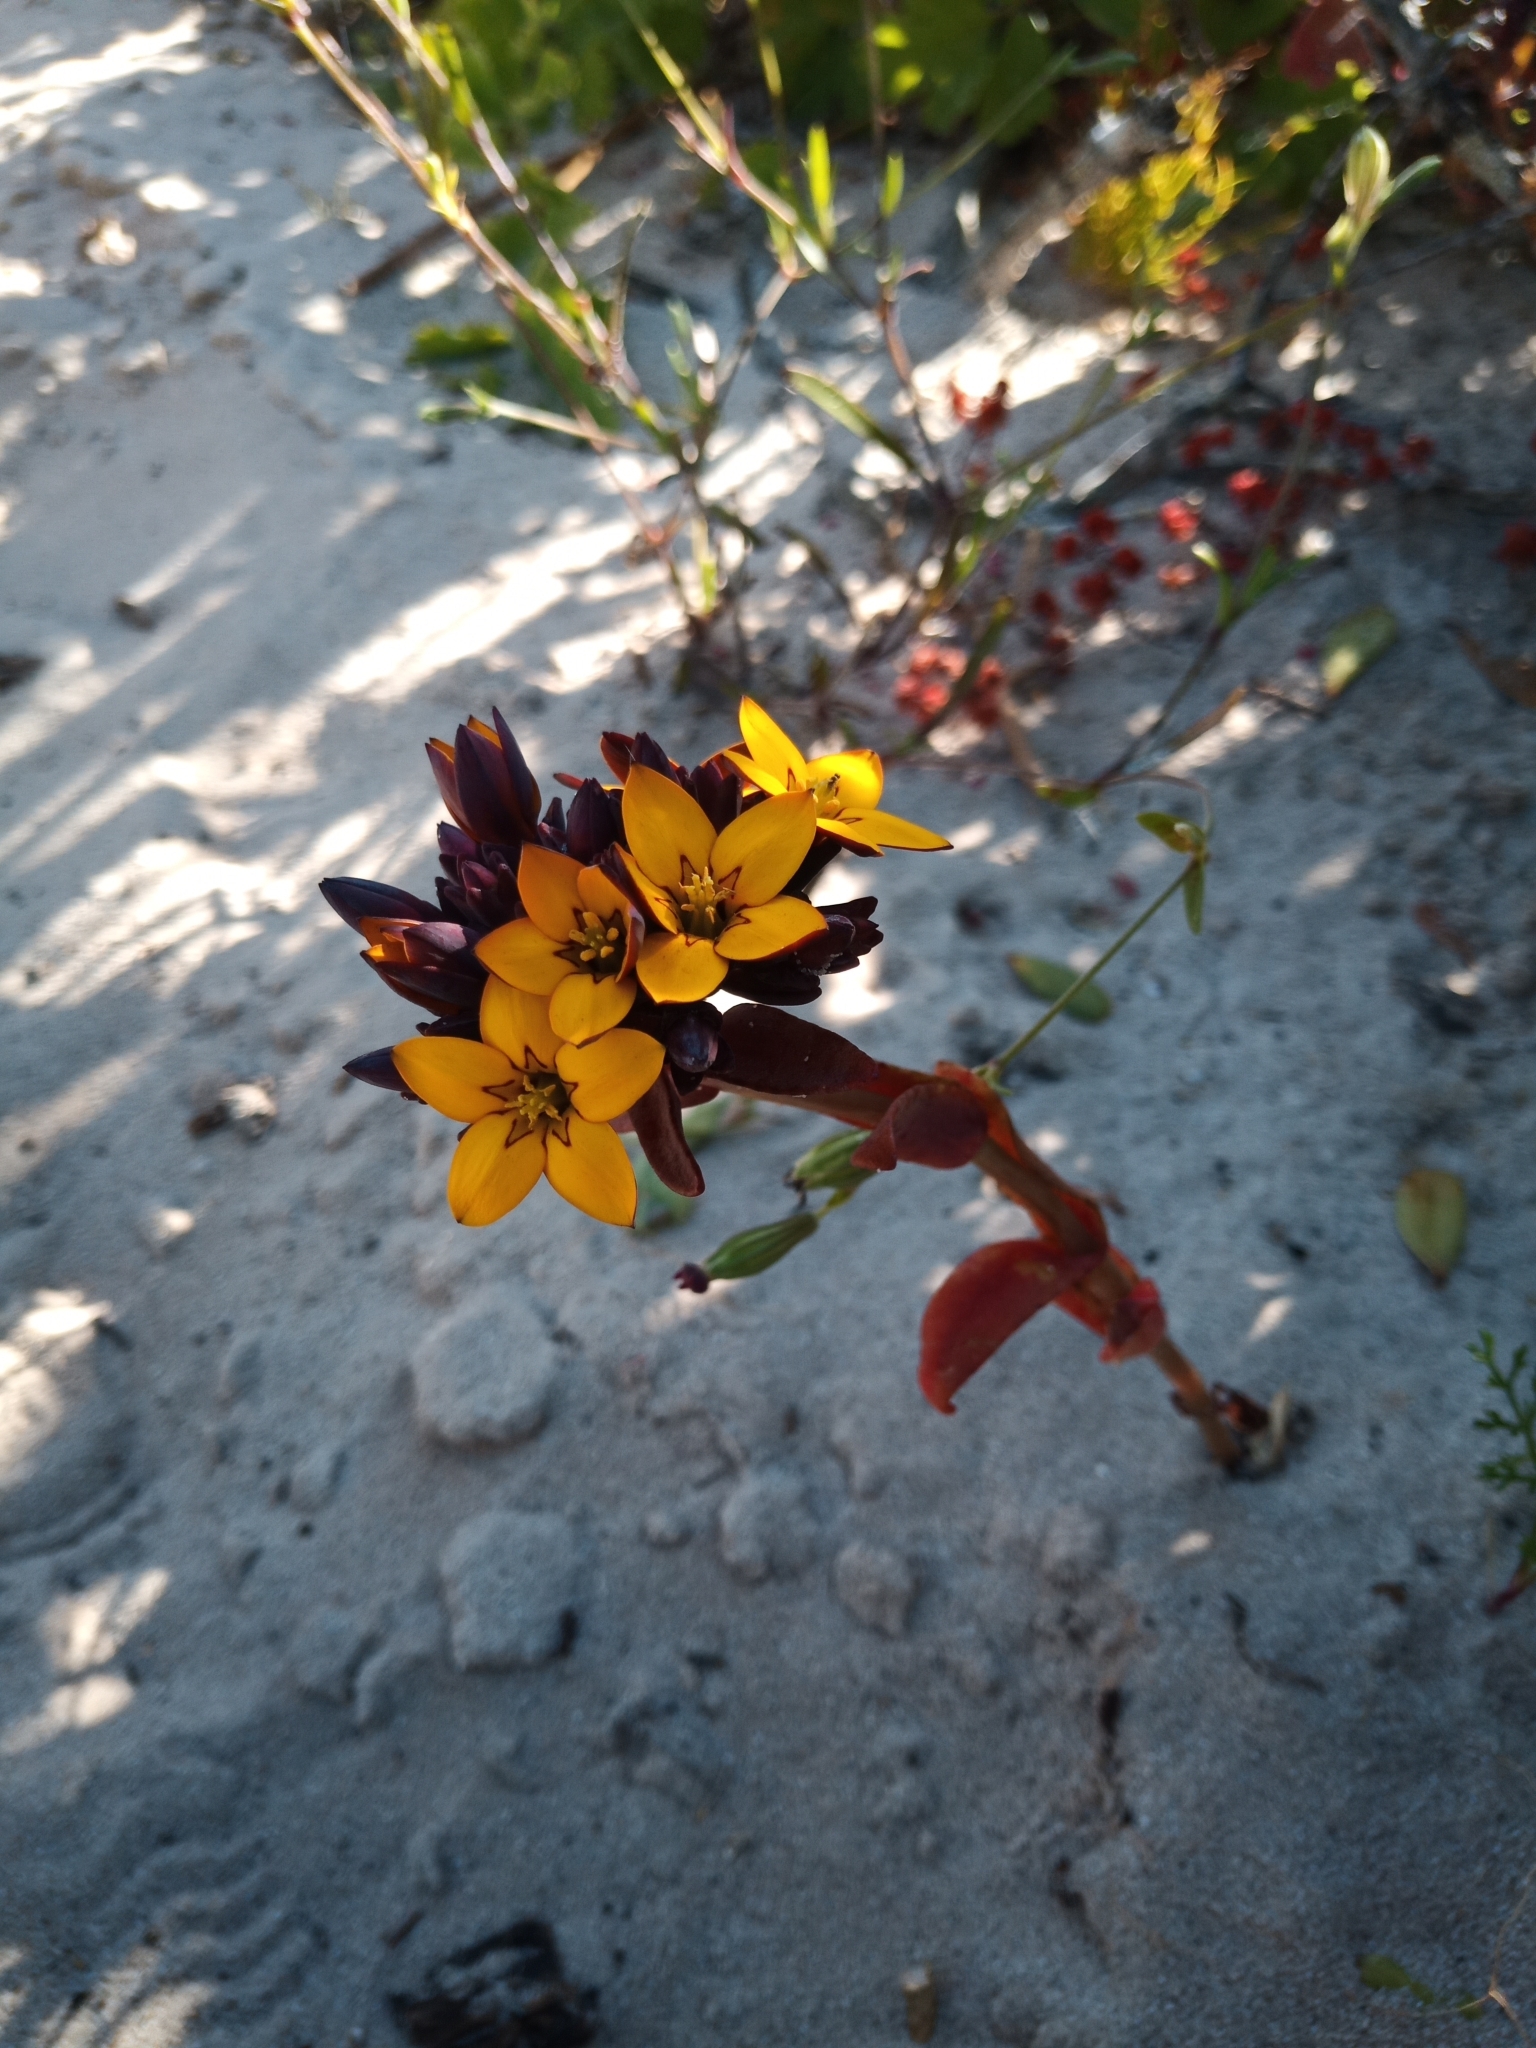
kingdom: Plantae
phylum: Tracheophyta
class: Magnoliopsida
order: Saxifragales
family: Crassulaceae
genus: Crassula
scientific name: Crassula dichotoma
